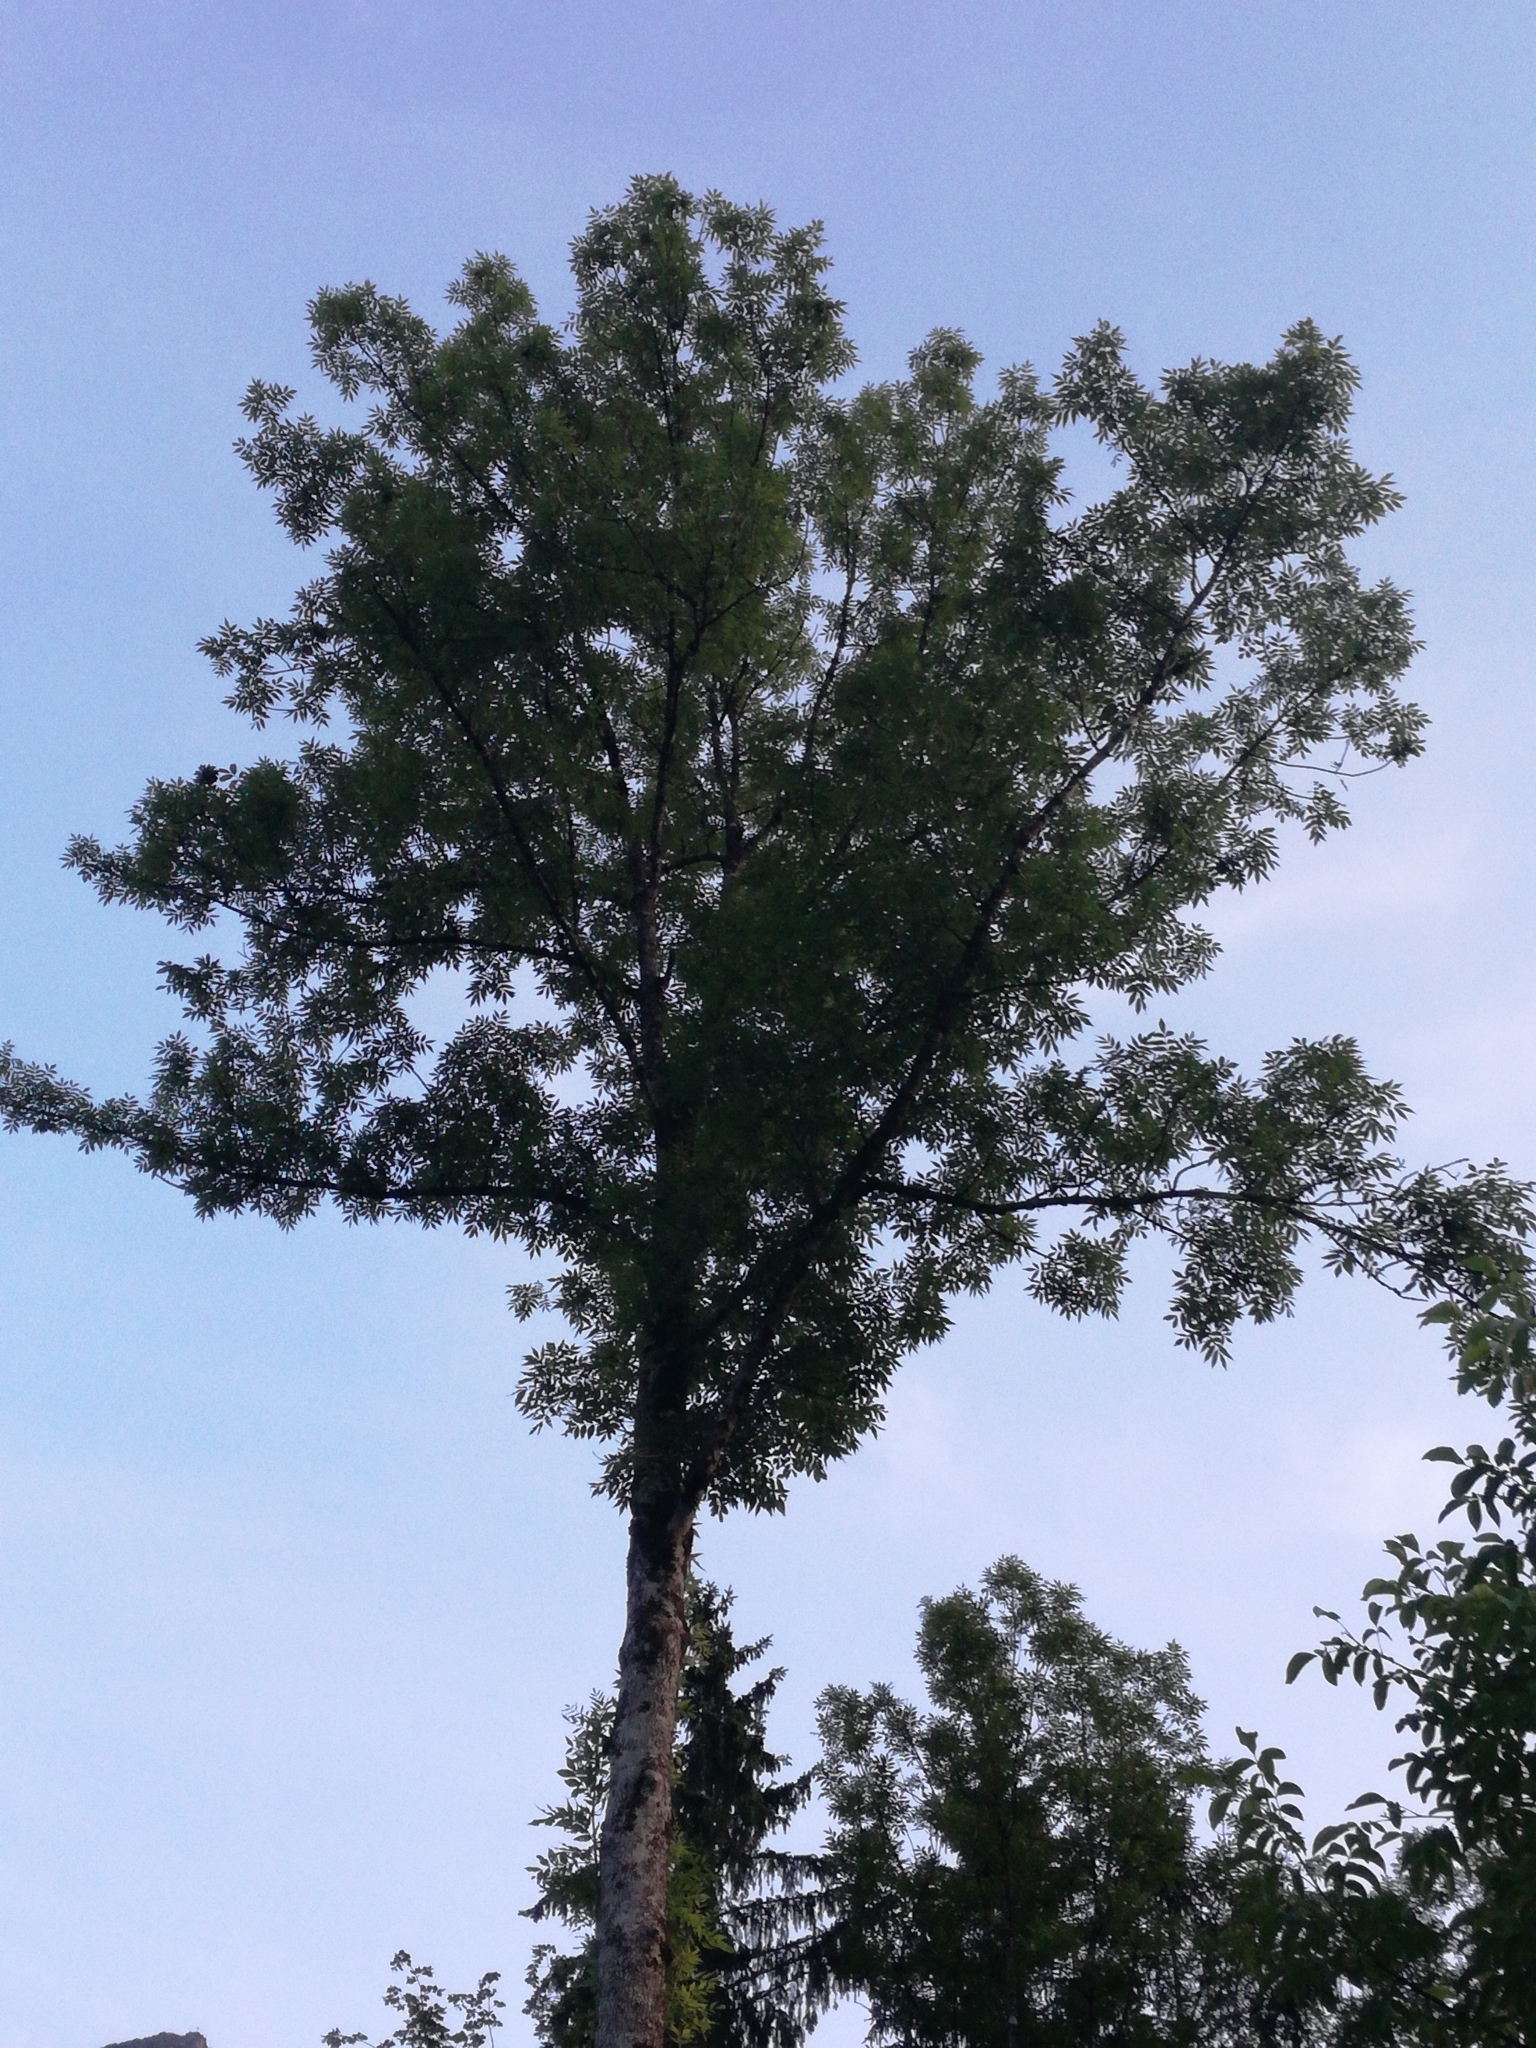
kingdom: Plantae
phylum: Tracheophyta
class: Magnoliopsida
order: Lamiales
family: Oleaceae
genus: Fraxinus
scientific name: Fraxinus excelsior
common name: European ash
